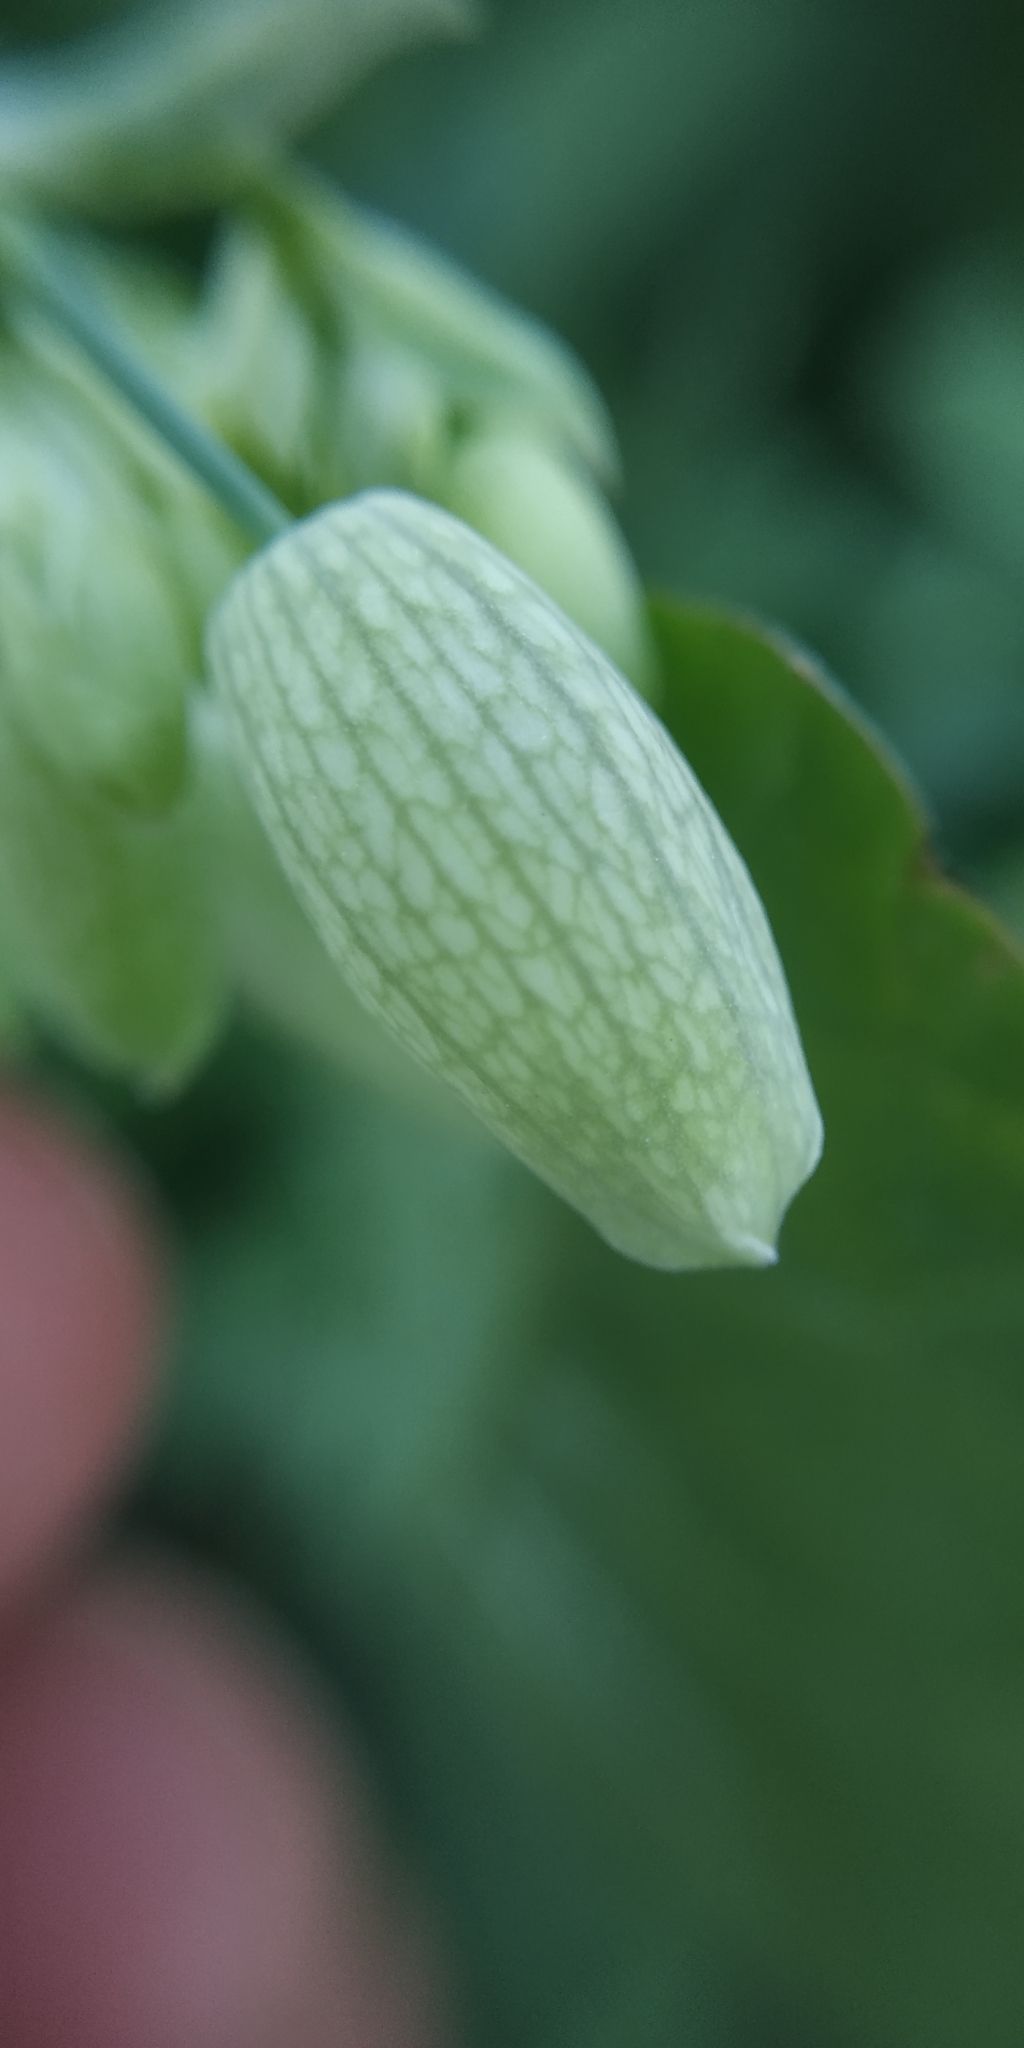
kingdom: Plantae
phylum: Tracheophyta
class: Magnoliopsida
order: Caryophyllales
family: Caryophyllaceae
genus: Silene
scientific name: Silene vulgaris
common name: Bladder campion
